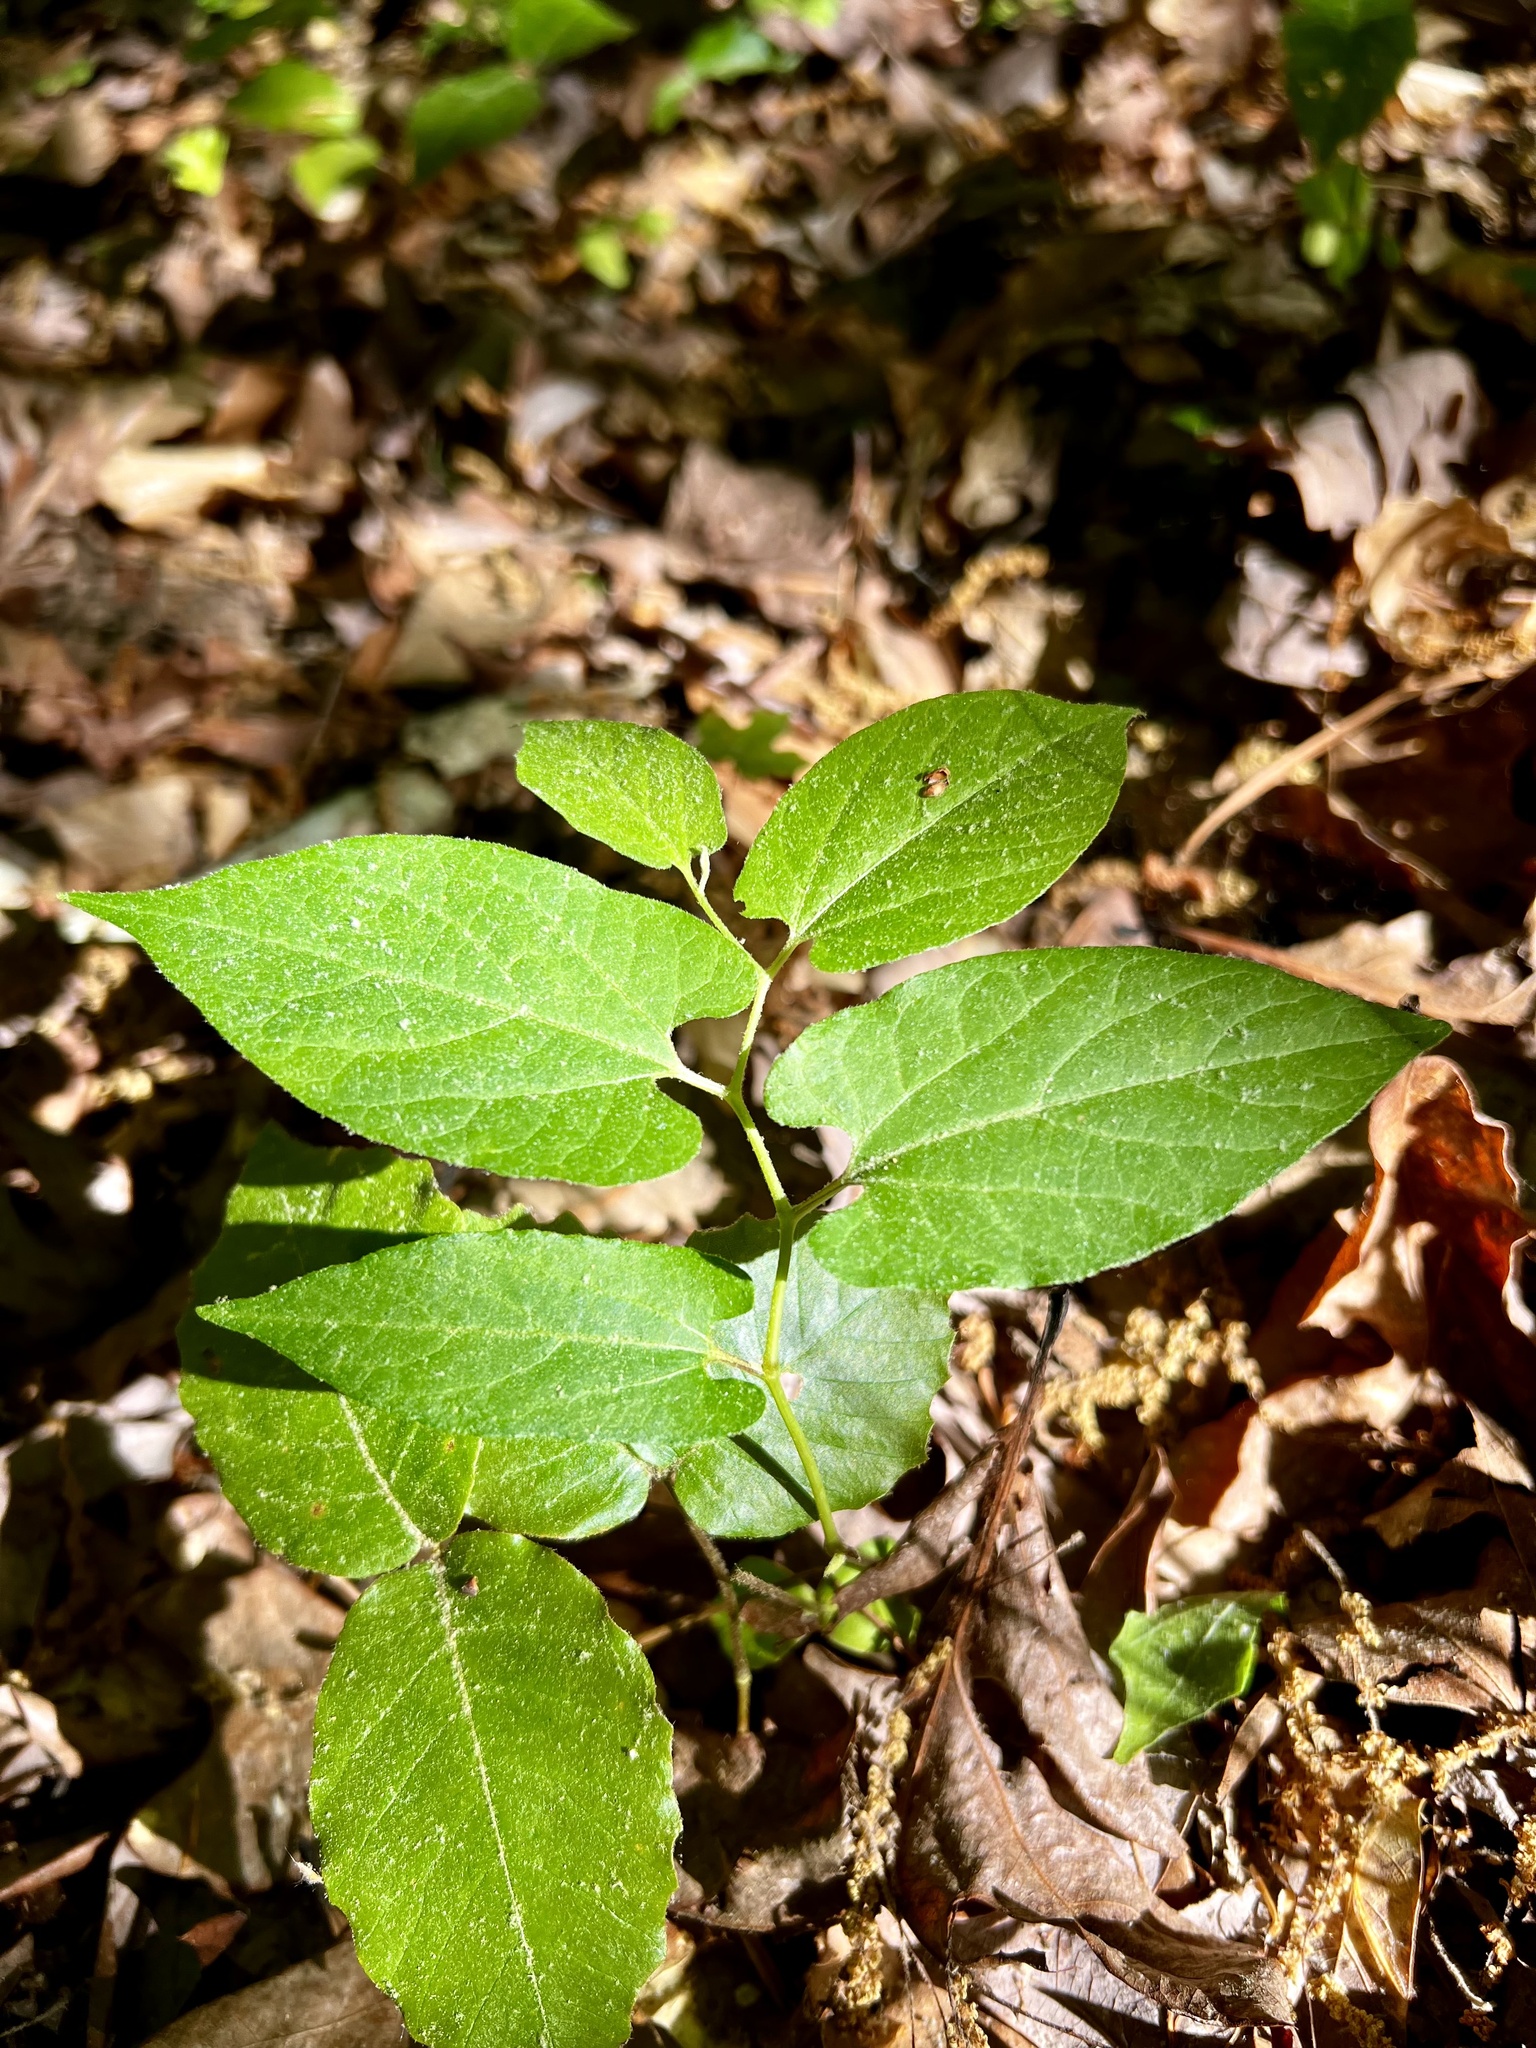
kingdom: Plantae
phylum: Tracheophyta
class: Magnoliopsida
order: Piperales
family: Aristolochiaceae
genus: Endodeca
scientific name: Endodeca serpentaria
